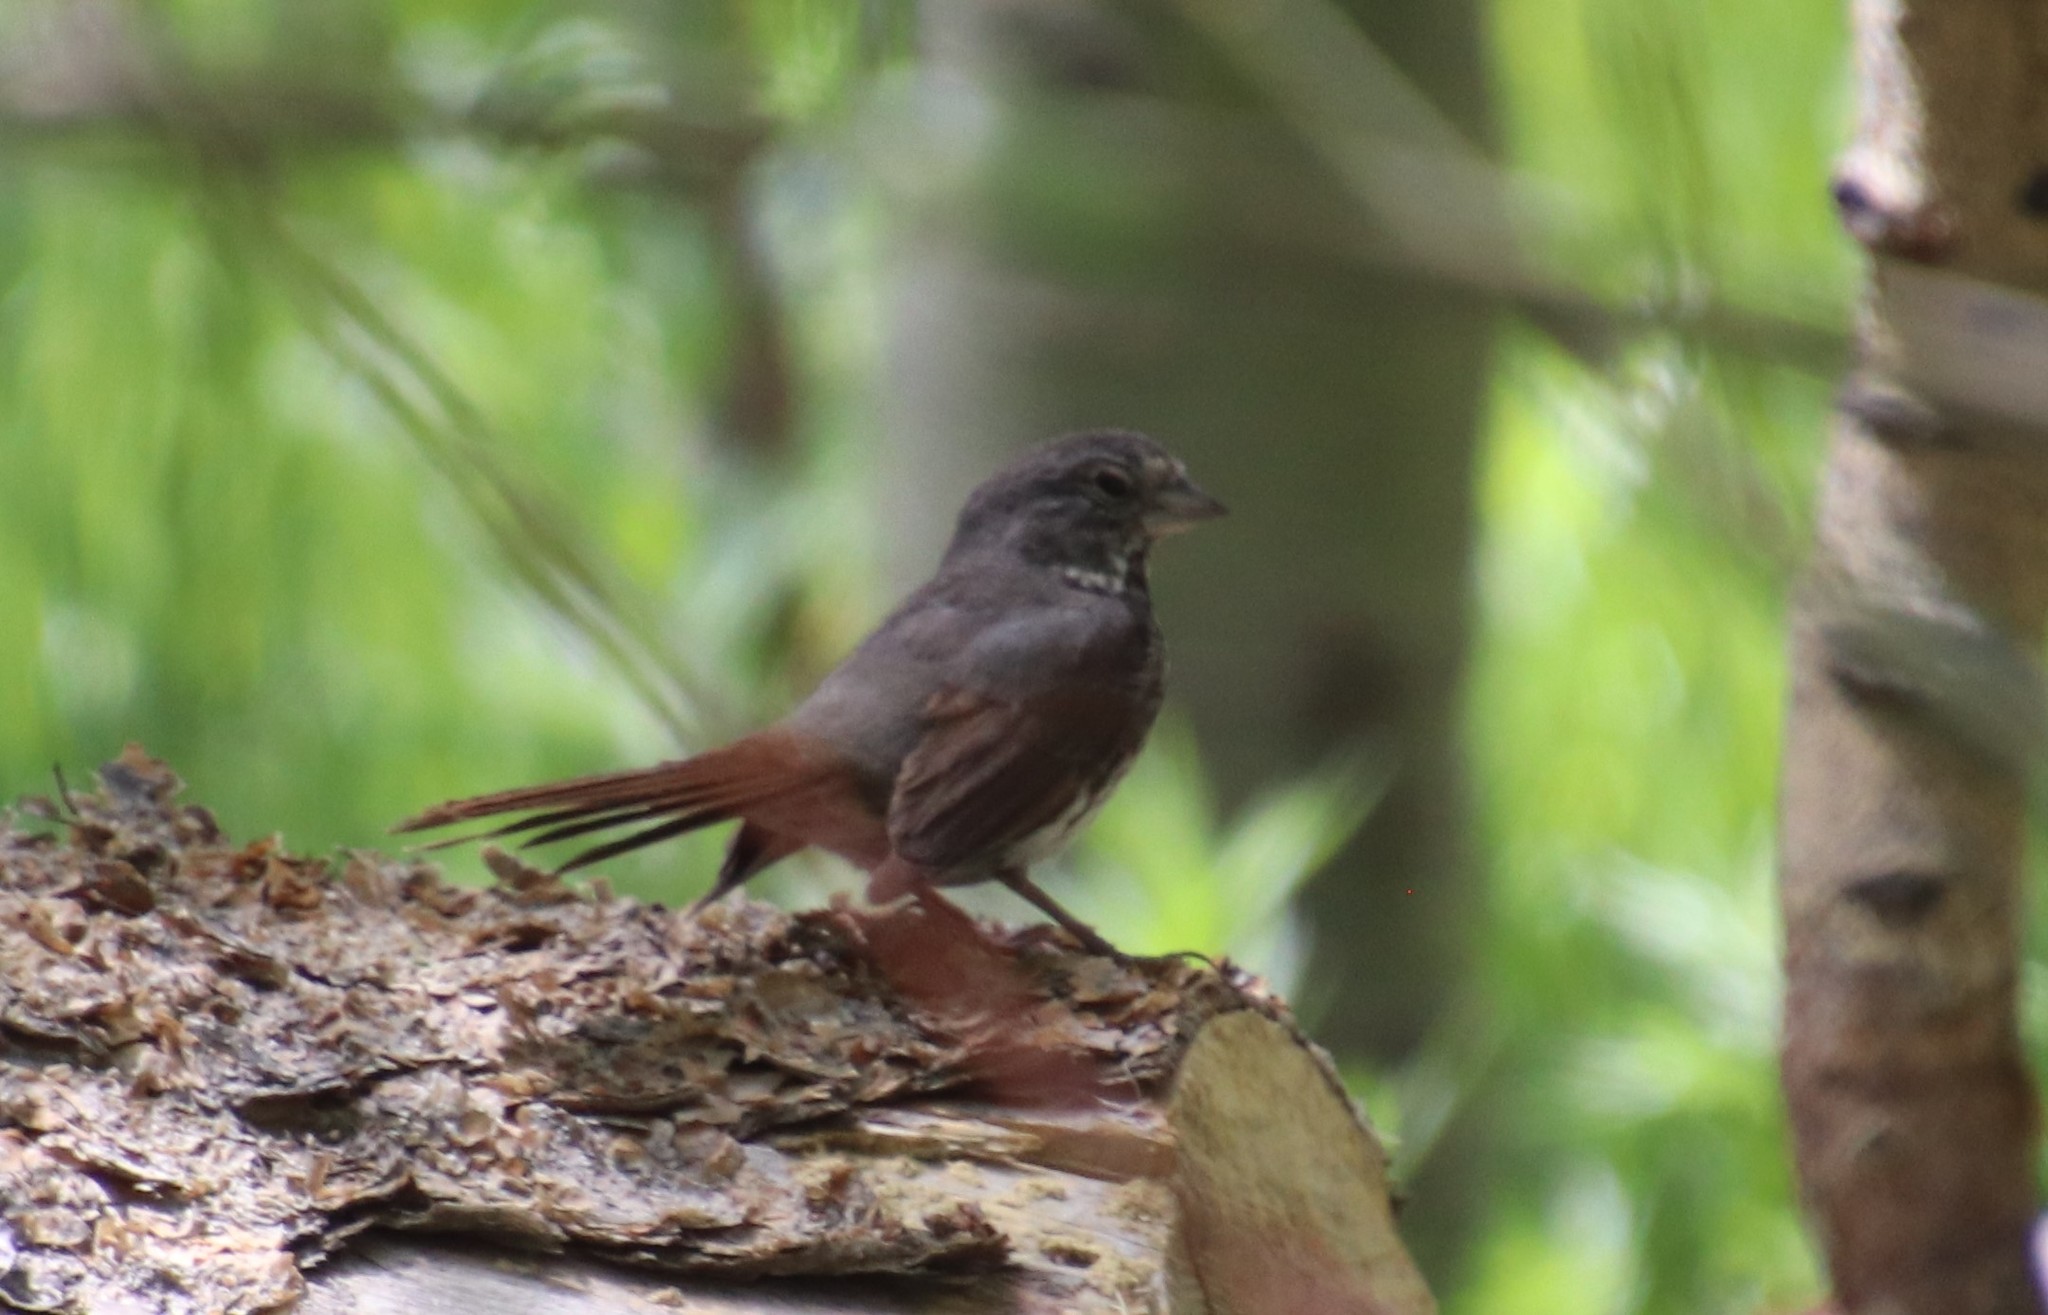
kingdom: Animalia
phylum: Chordata
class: Aves
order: Passeriformes
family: Passerellidae
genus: Passerella
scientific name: Passerella iliaca
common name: Fox sparrow
